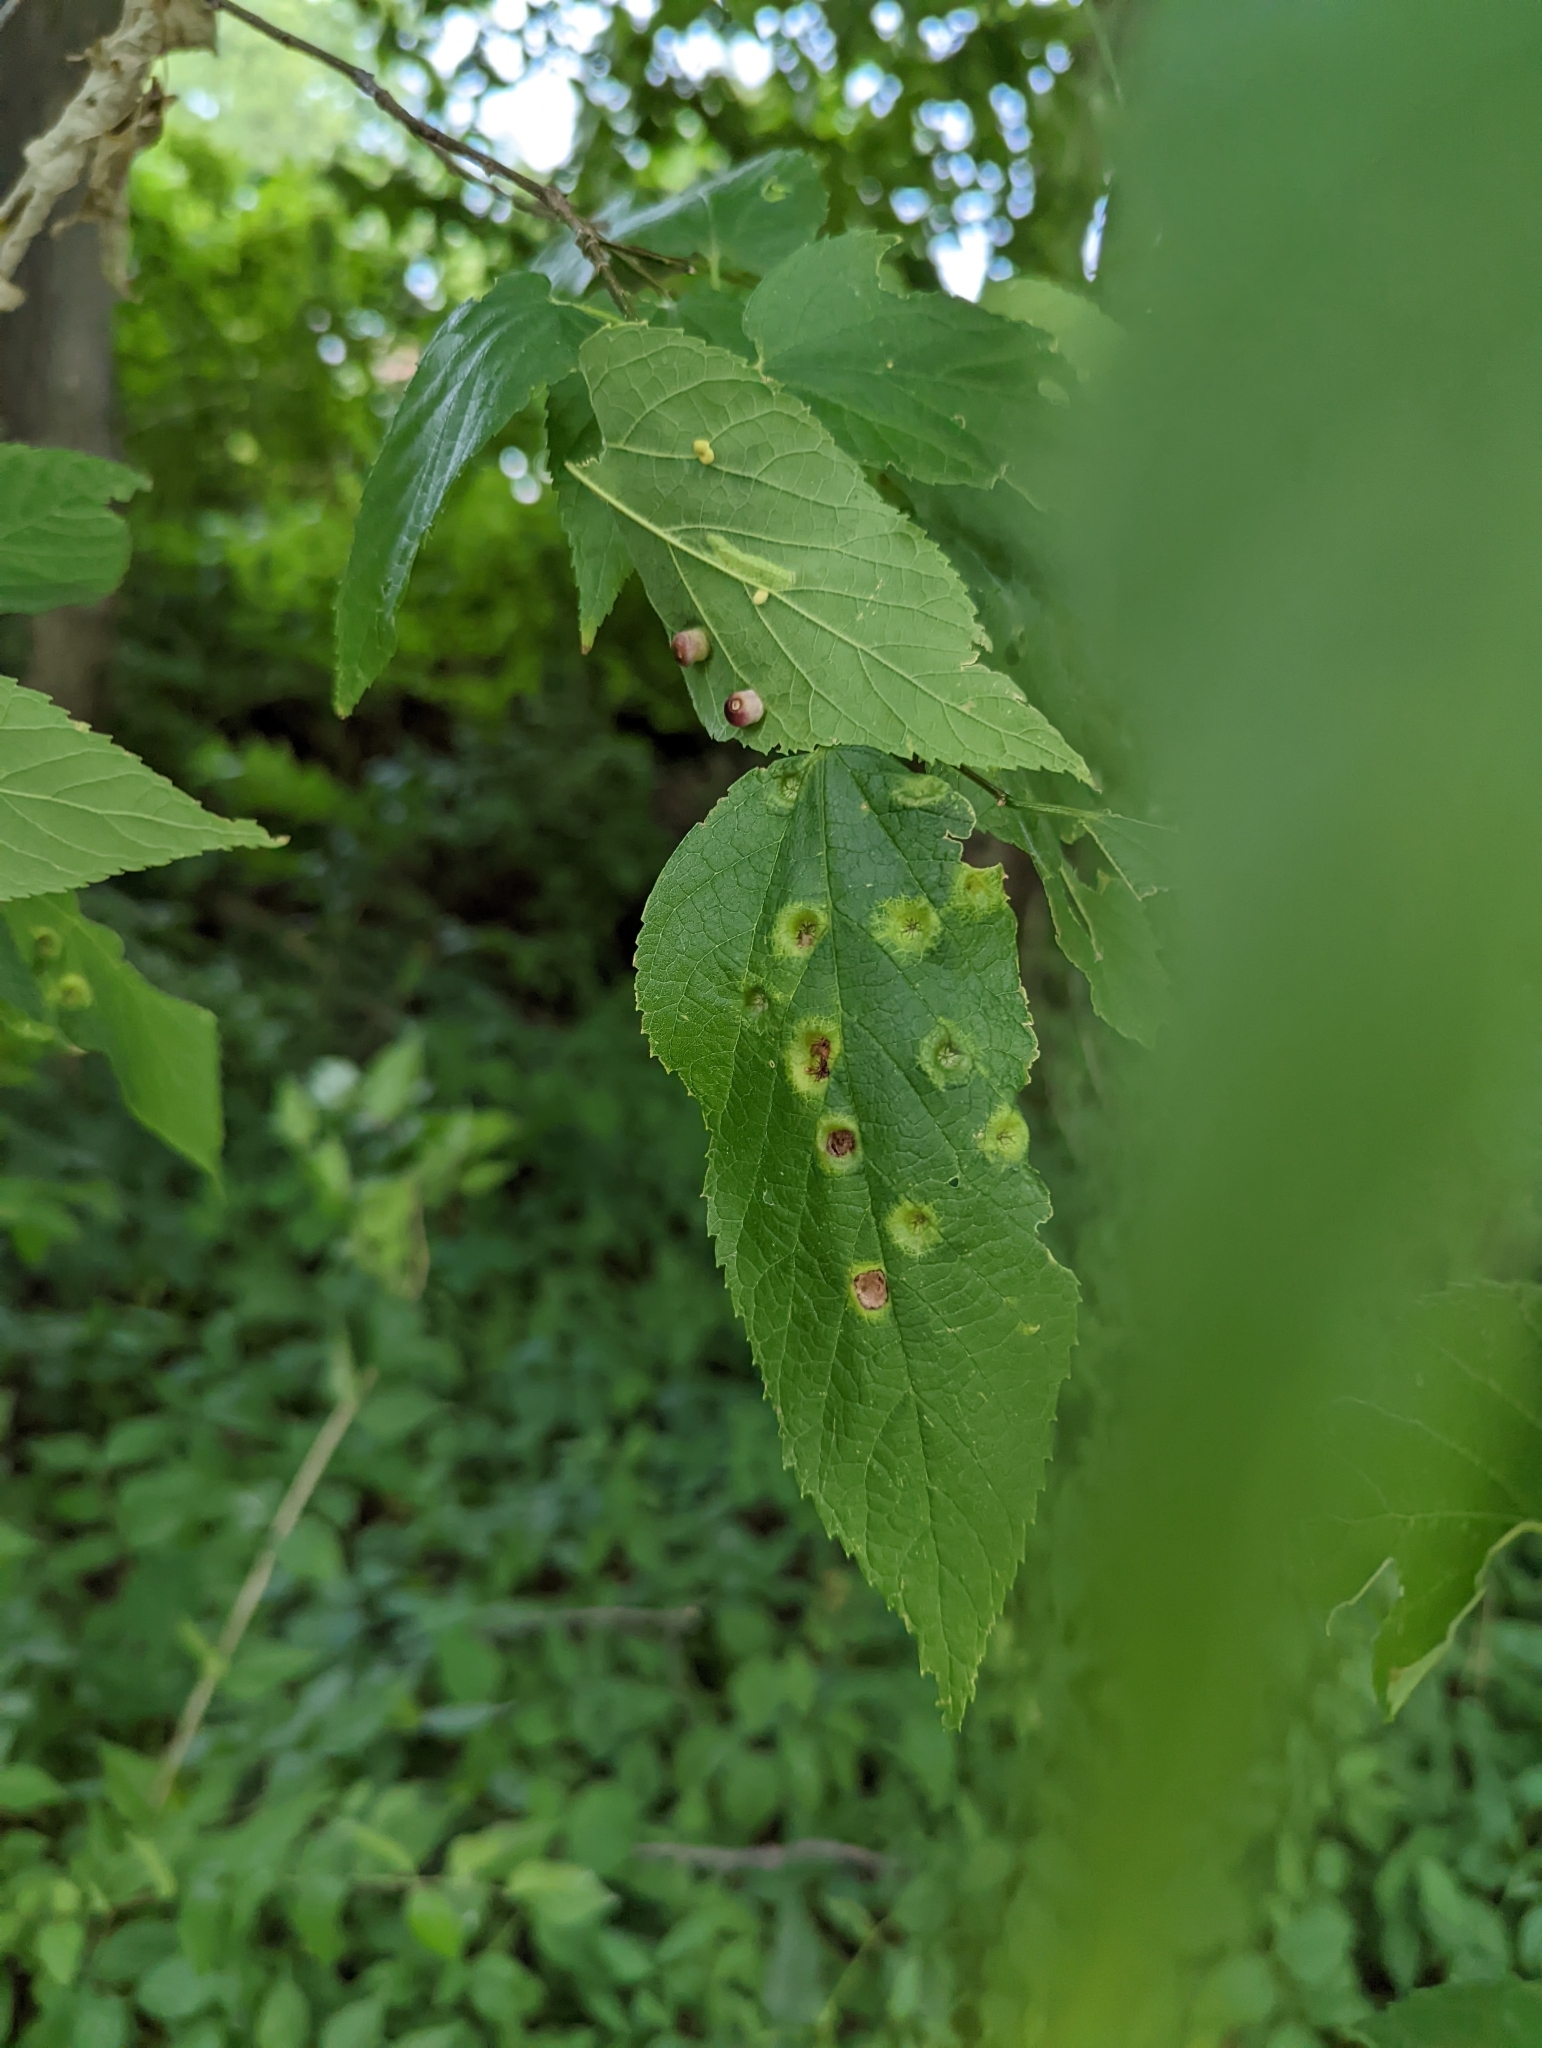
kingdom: Animalia
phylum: Arthropoda
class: Insecta
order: Hemiptera
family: Aphalaridae
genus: Pachypsylla
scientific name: Pachypsylla celtidismamma
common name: Hackberry nipplegall psyllid
